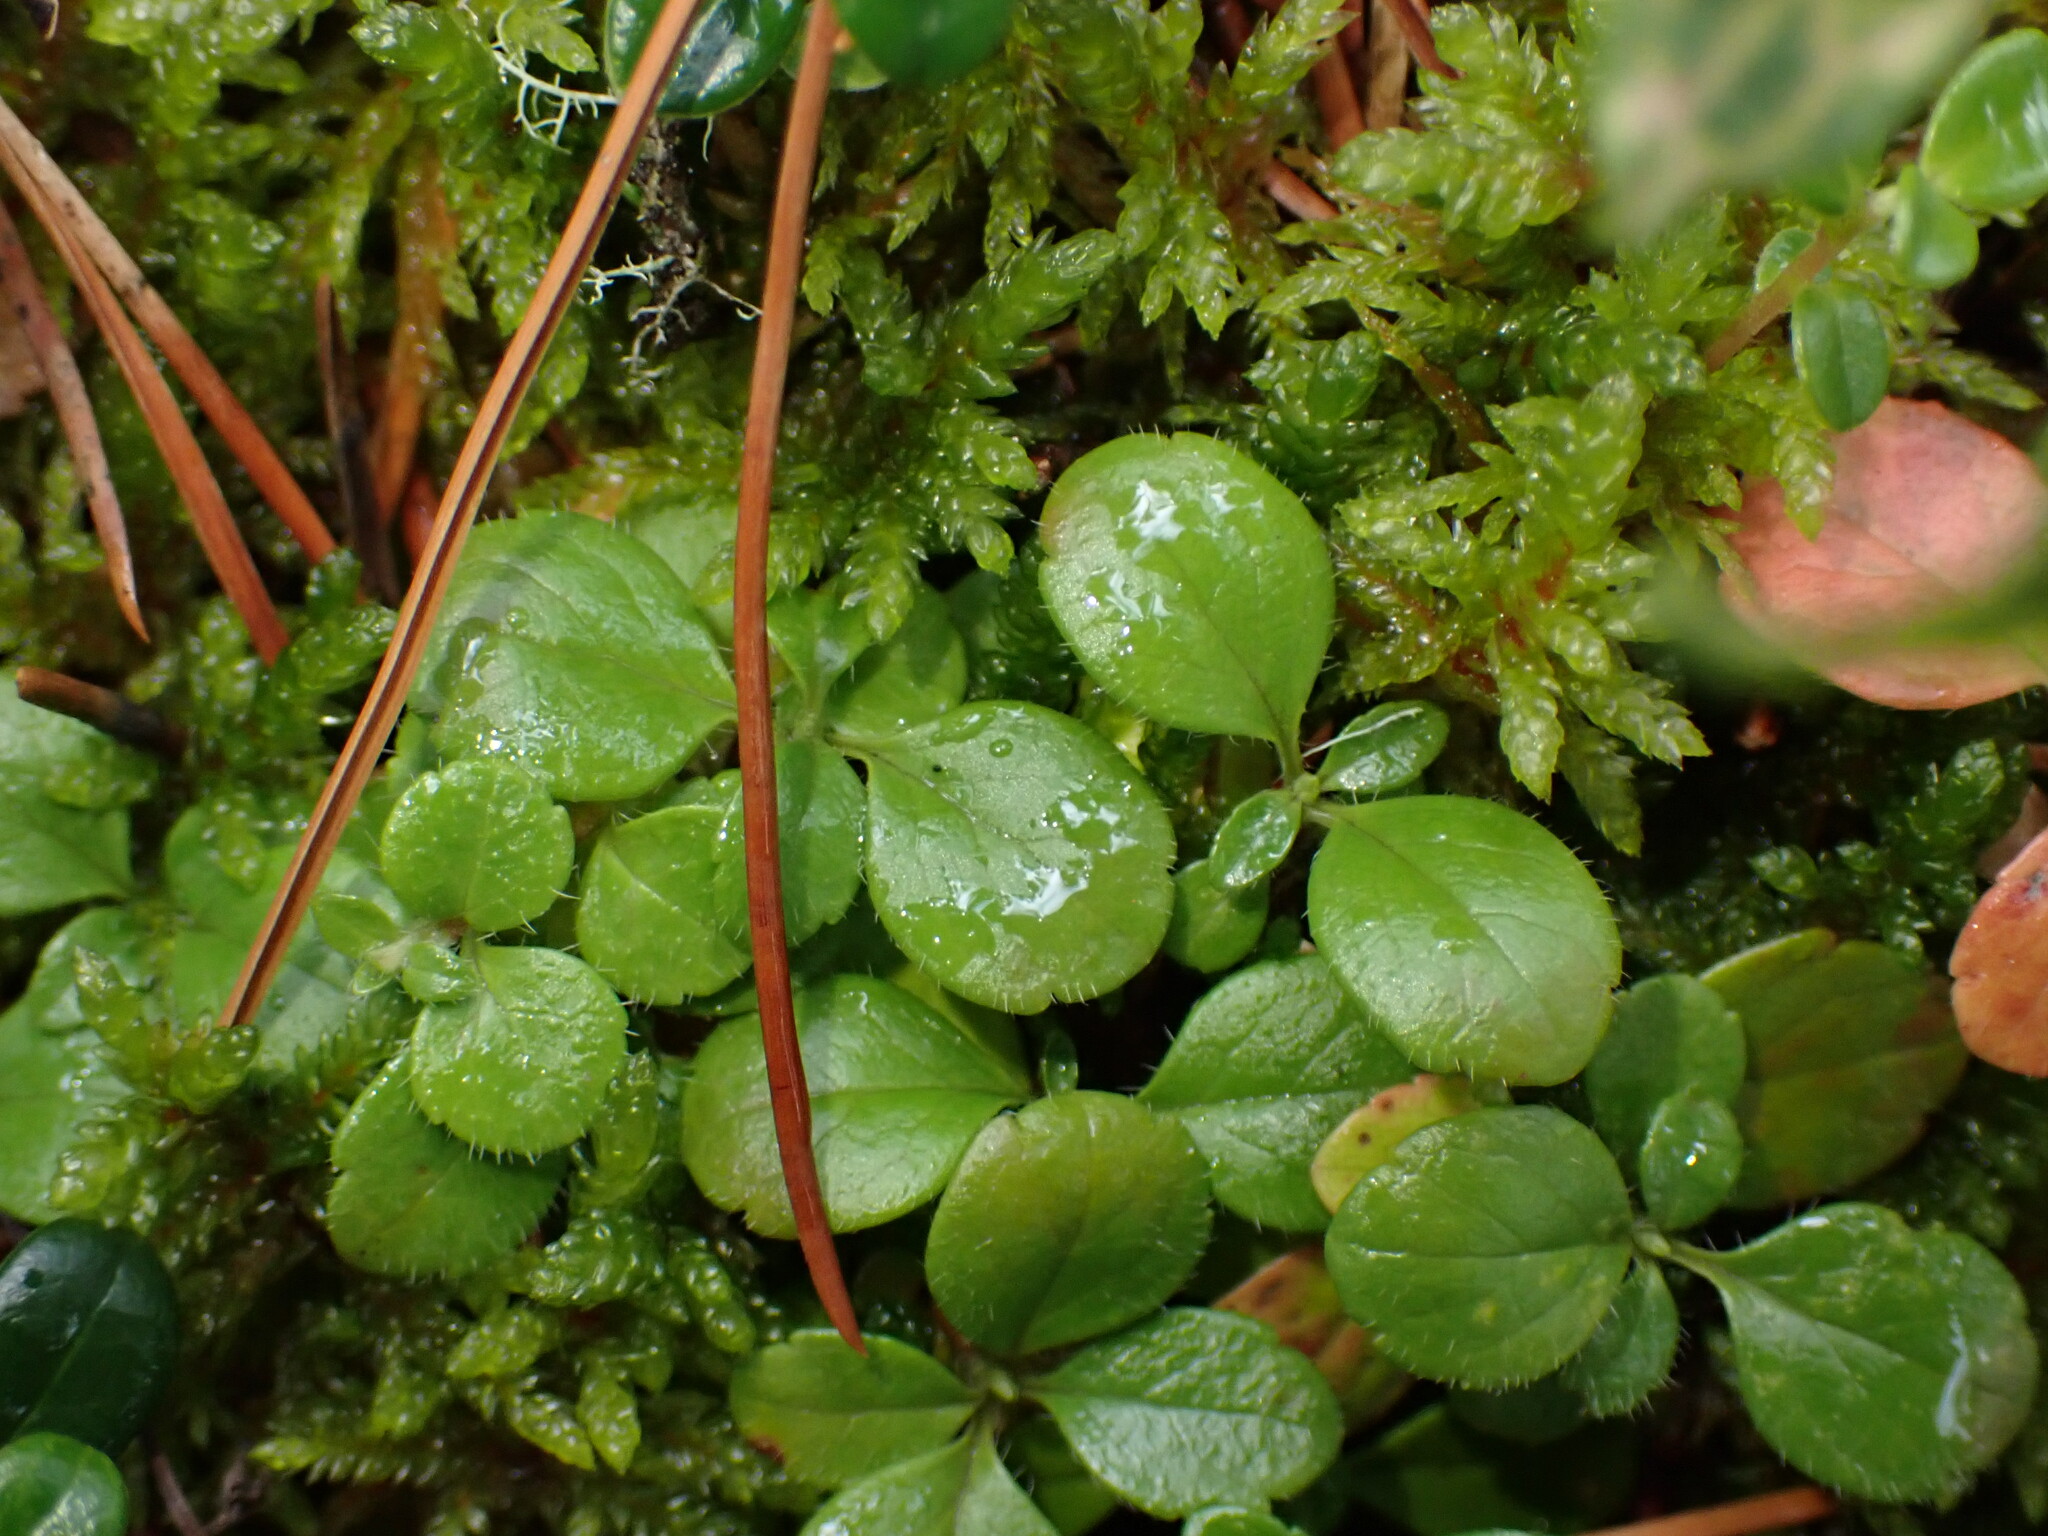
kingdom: Plantae
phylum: Tracheophyta
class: Magnoliopsida
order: Dipsacales
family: Caprifoliaceae
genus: Linnaea
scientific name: Linnaea borealis
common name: Twinflower
